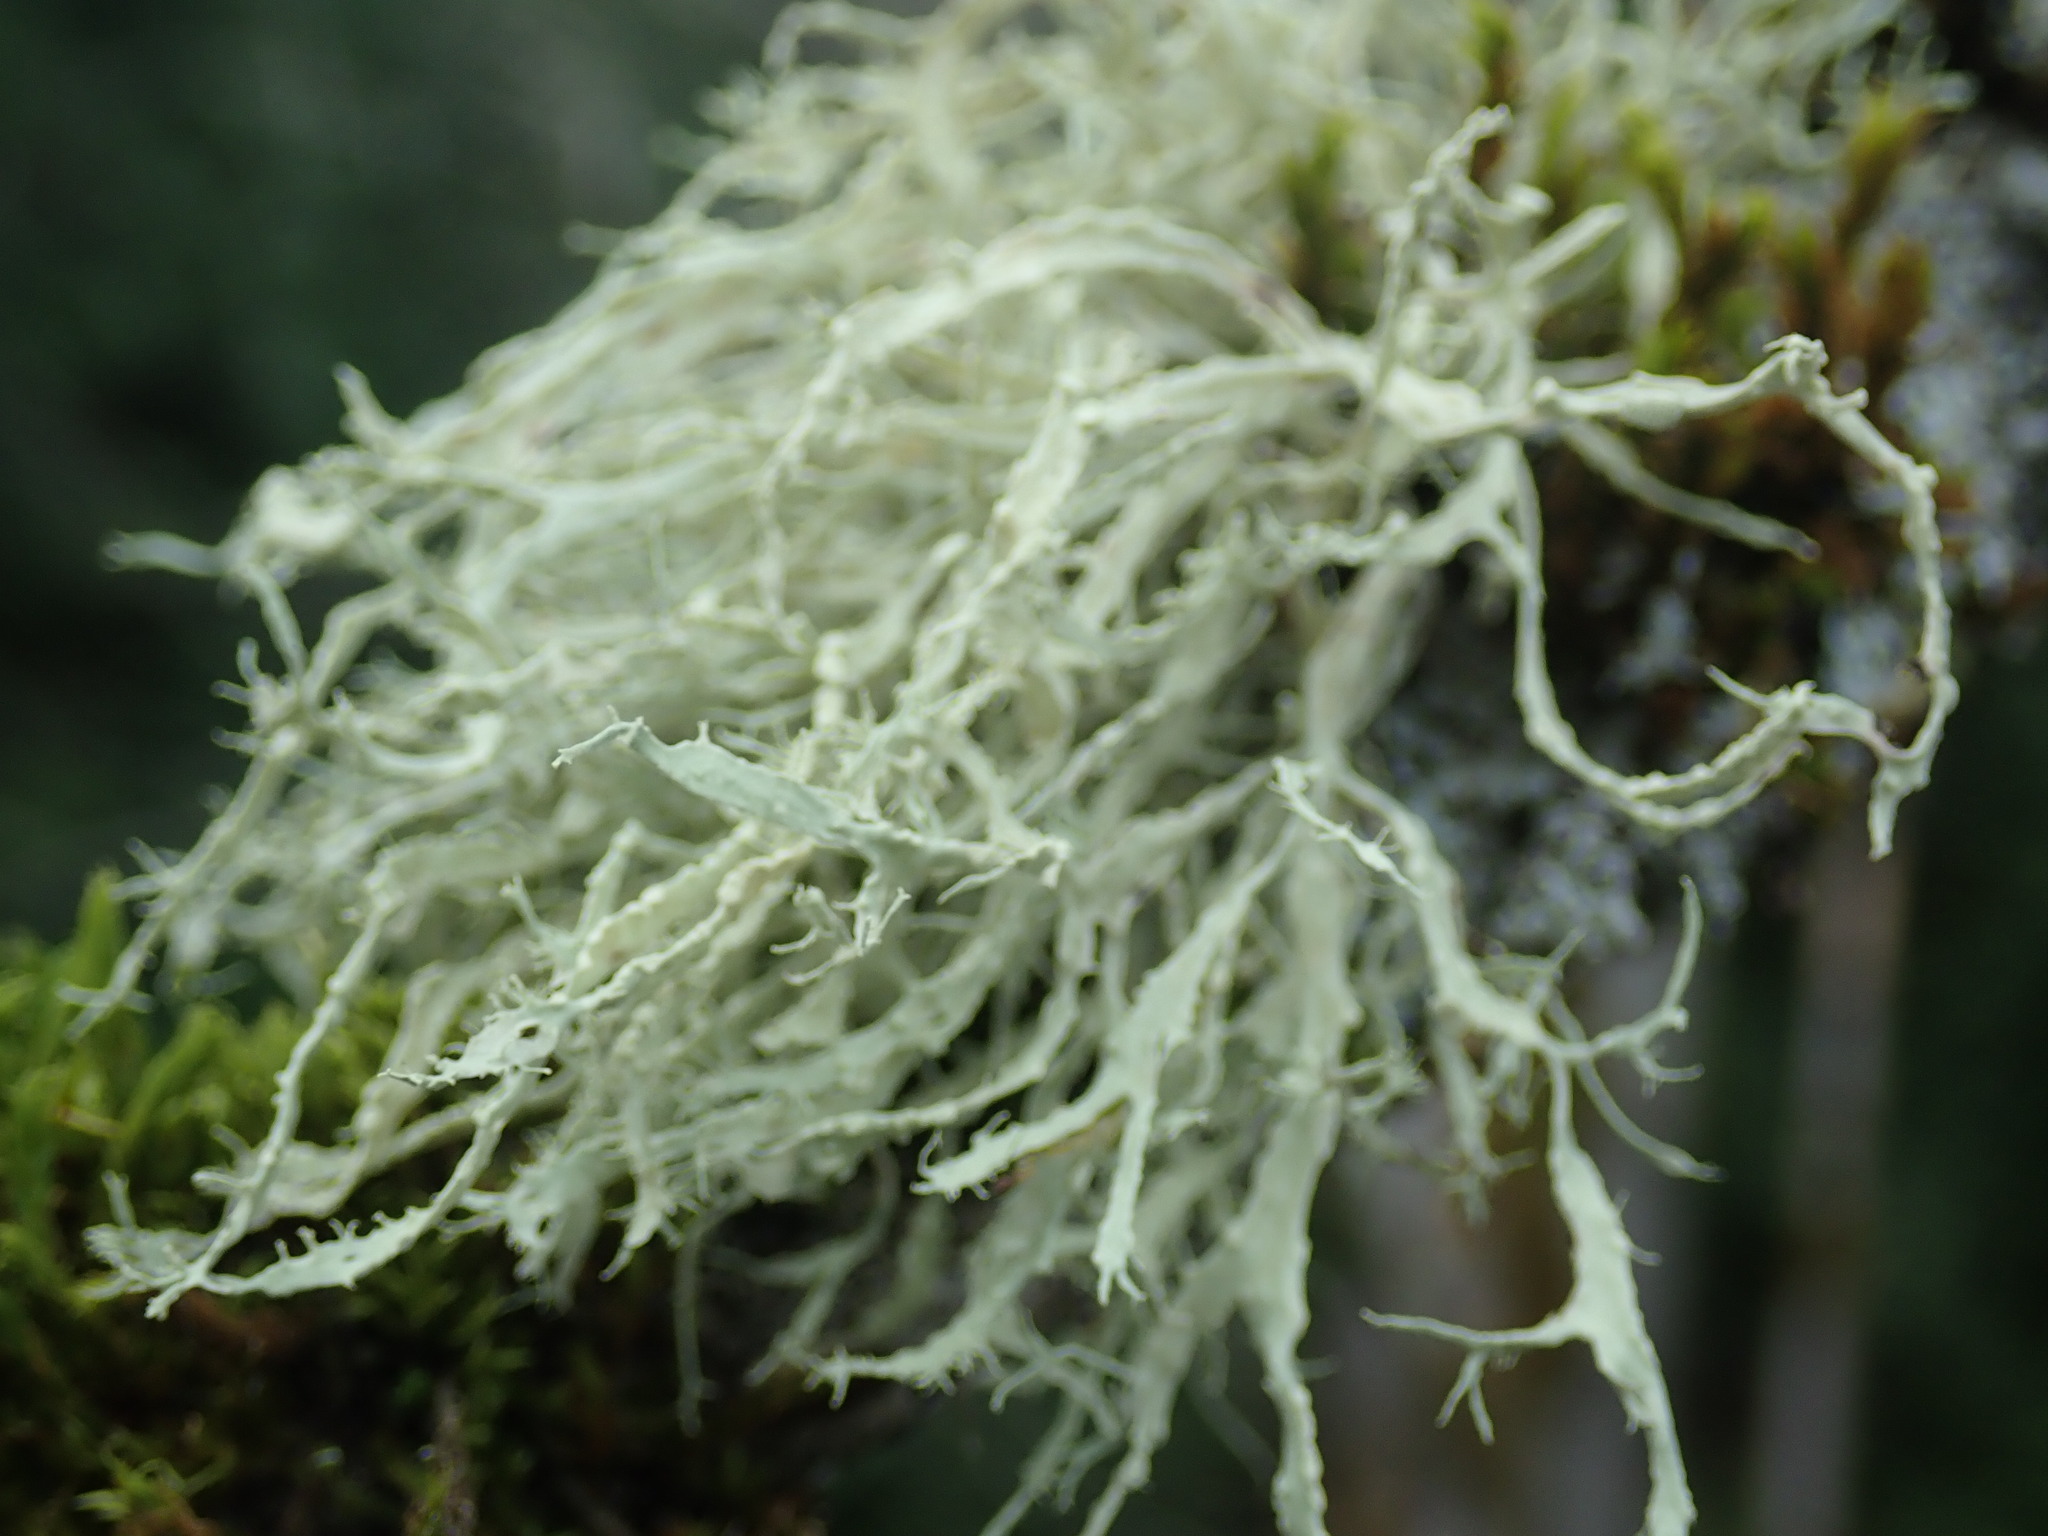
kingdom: Fungi
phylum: Ascomycota
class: Lecanoromycetes
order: Lecanorales
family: Ramalinaceae
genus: Ramalina
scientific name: Ramalina farinacea
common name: Farinose cartilage lichen
